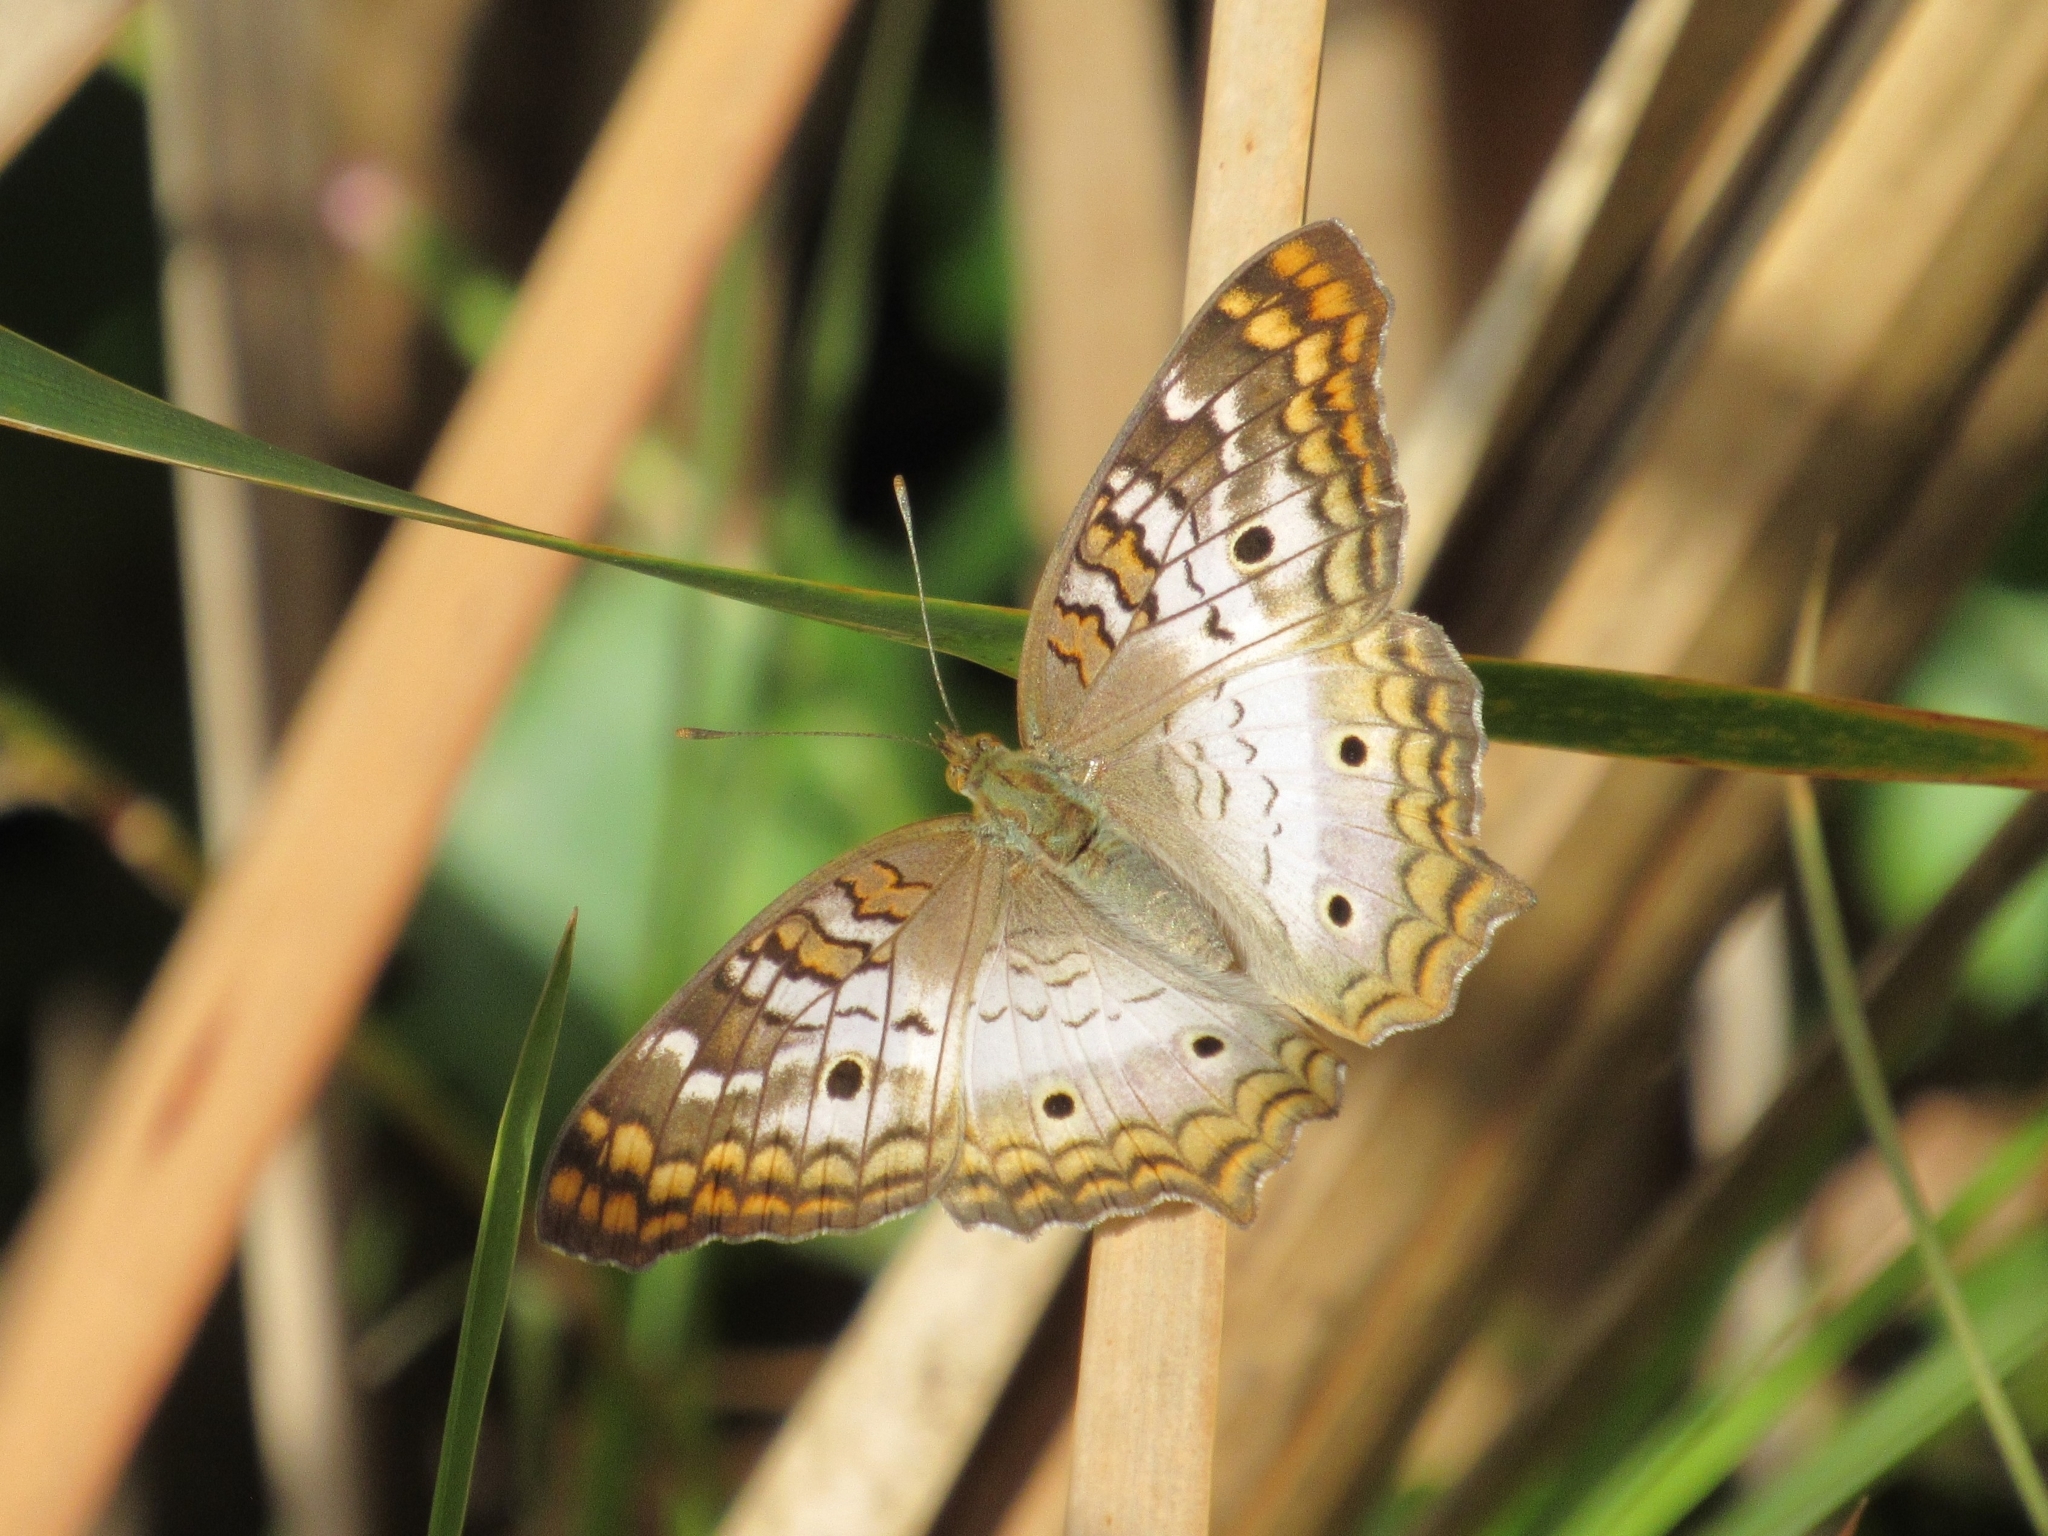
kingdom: Animalia
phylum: Arthropoda
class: Insecta
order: Lepidoptera
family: Nymphalidae
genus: Anartia
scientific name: Anartia jatrophae
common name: White peacock
